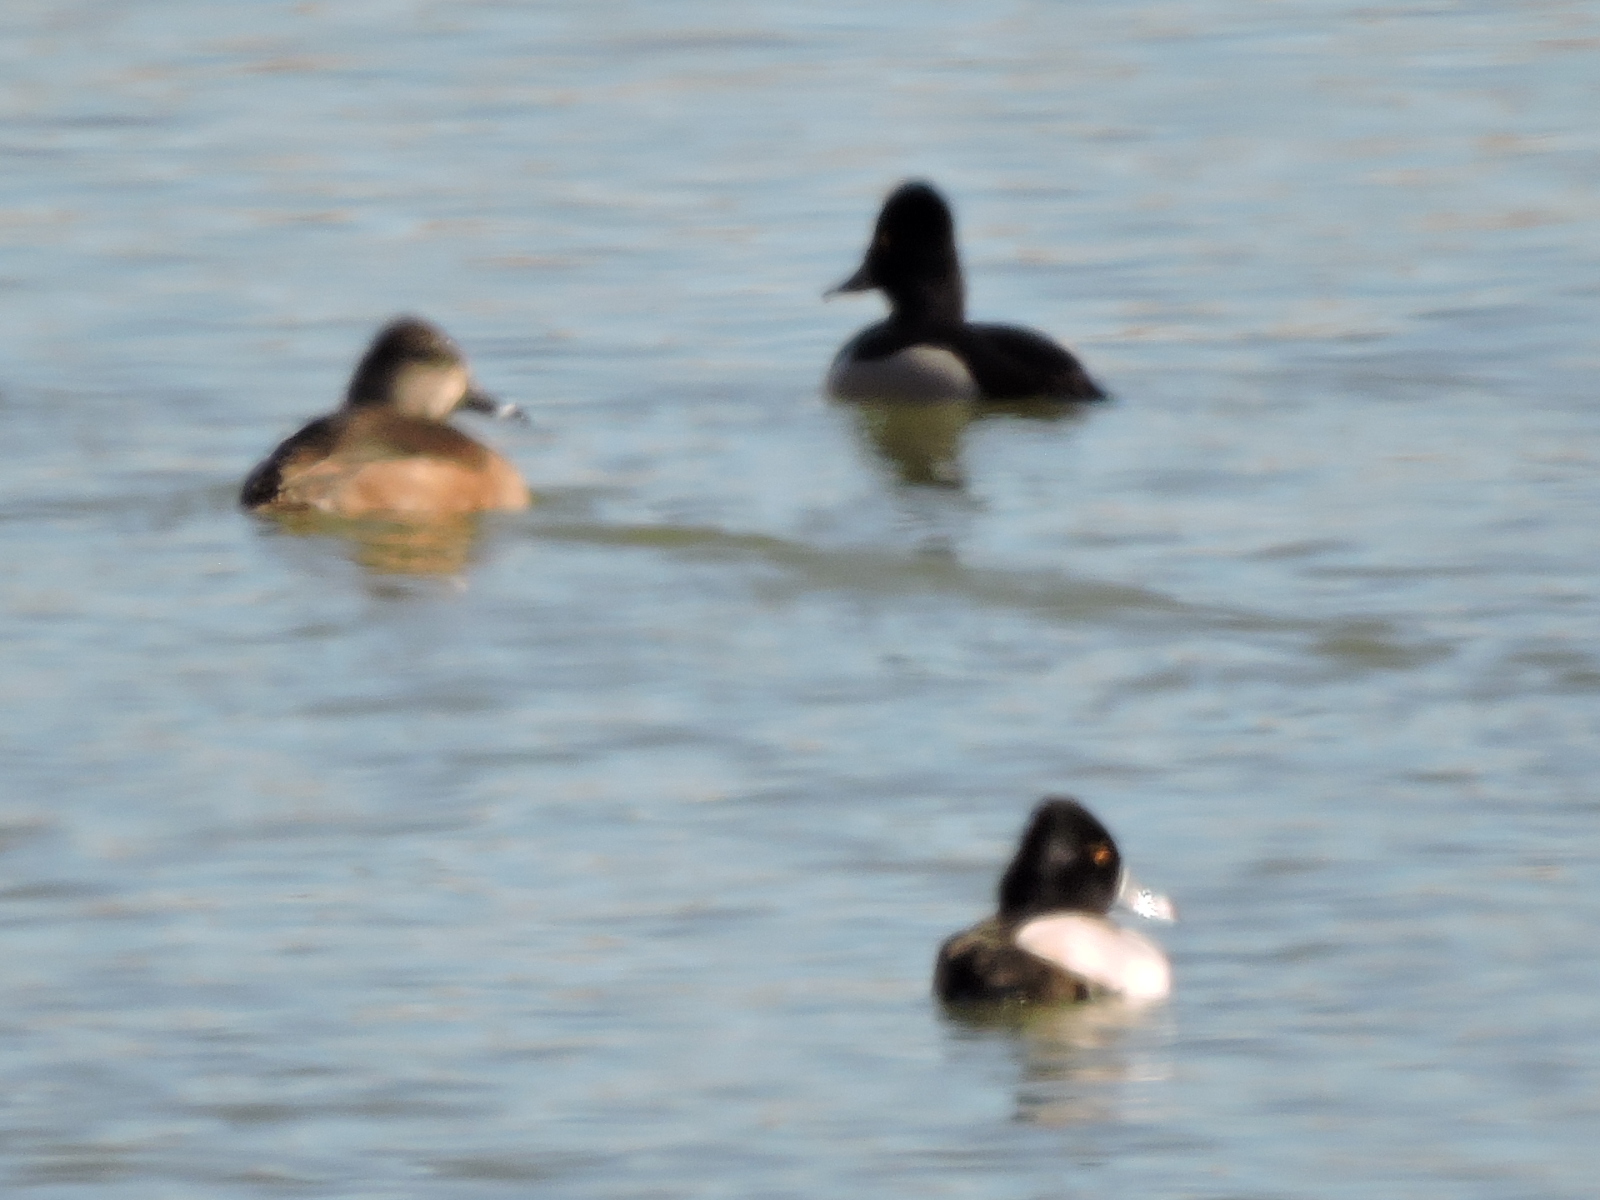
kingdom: Animalia
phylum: Chordata
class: Aves
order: Anseriformes
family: Anatidae
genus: Aythya
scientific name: Aythya collaris
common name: Ring-necked duck
